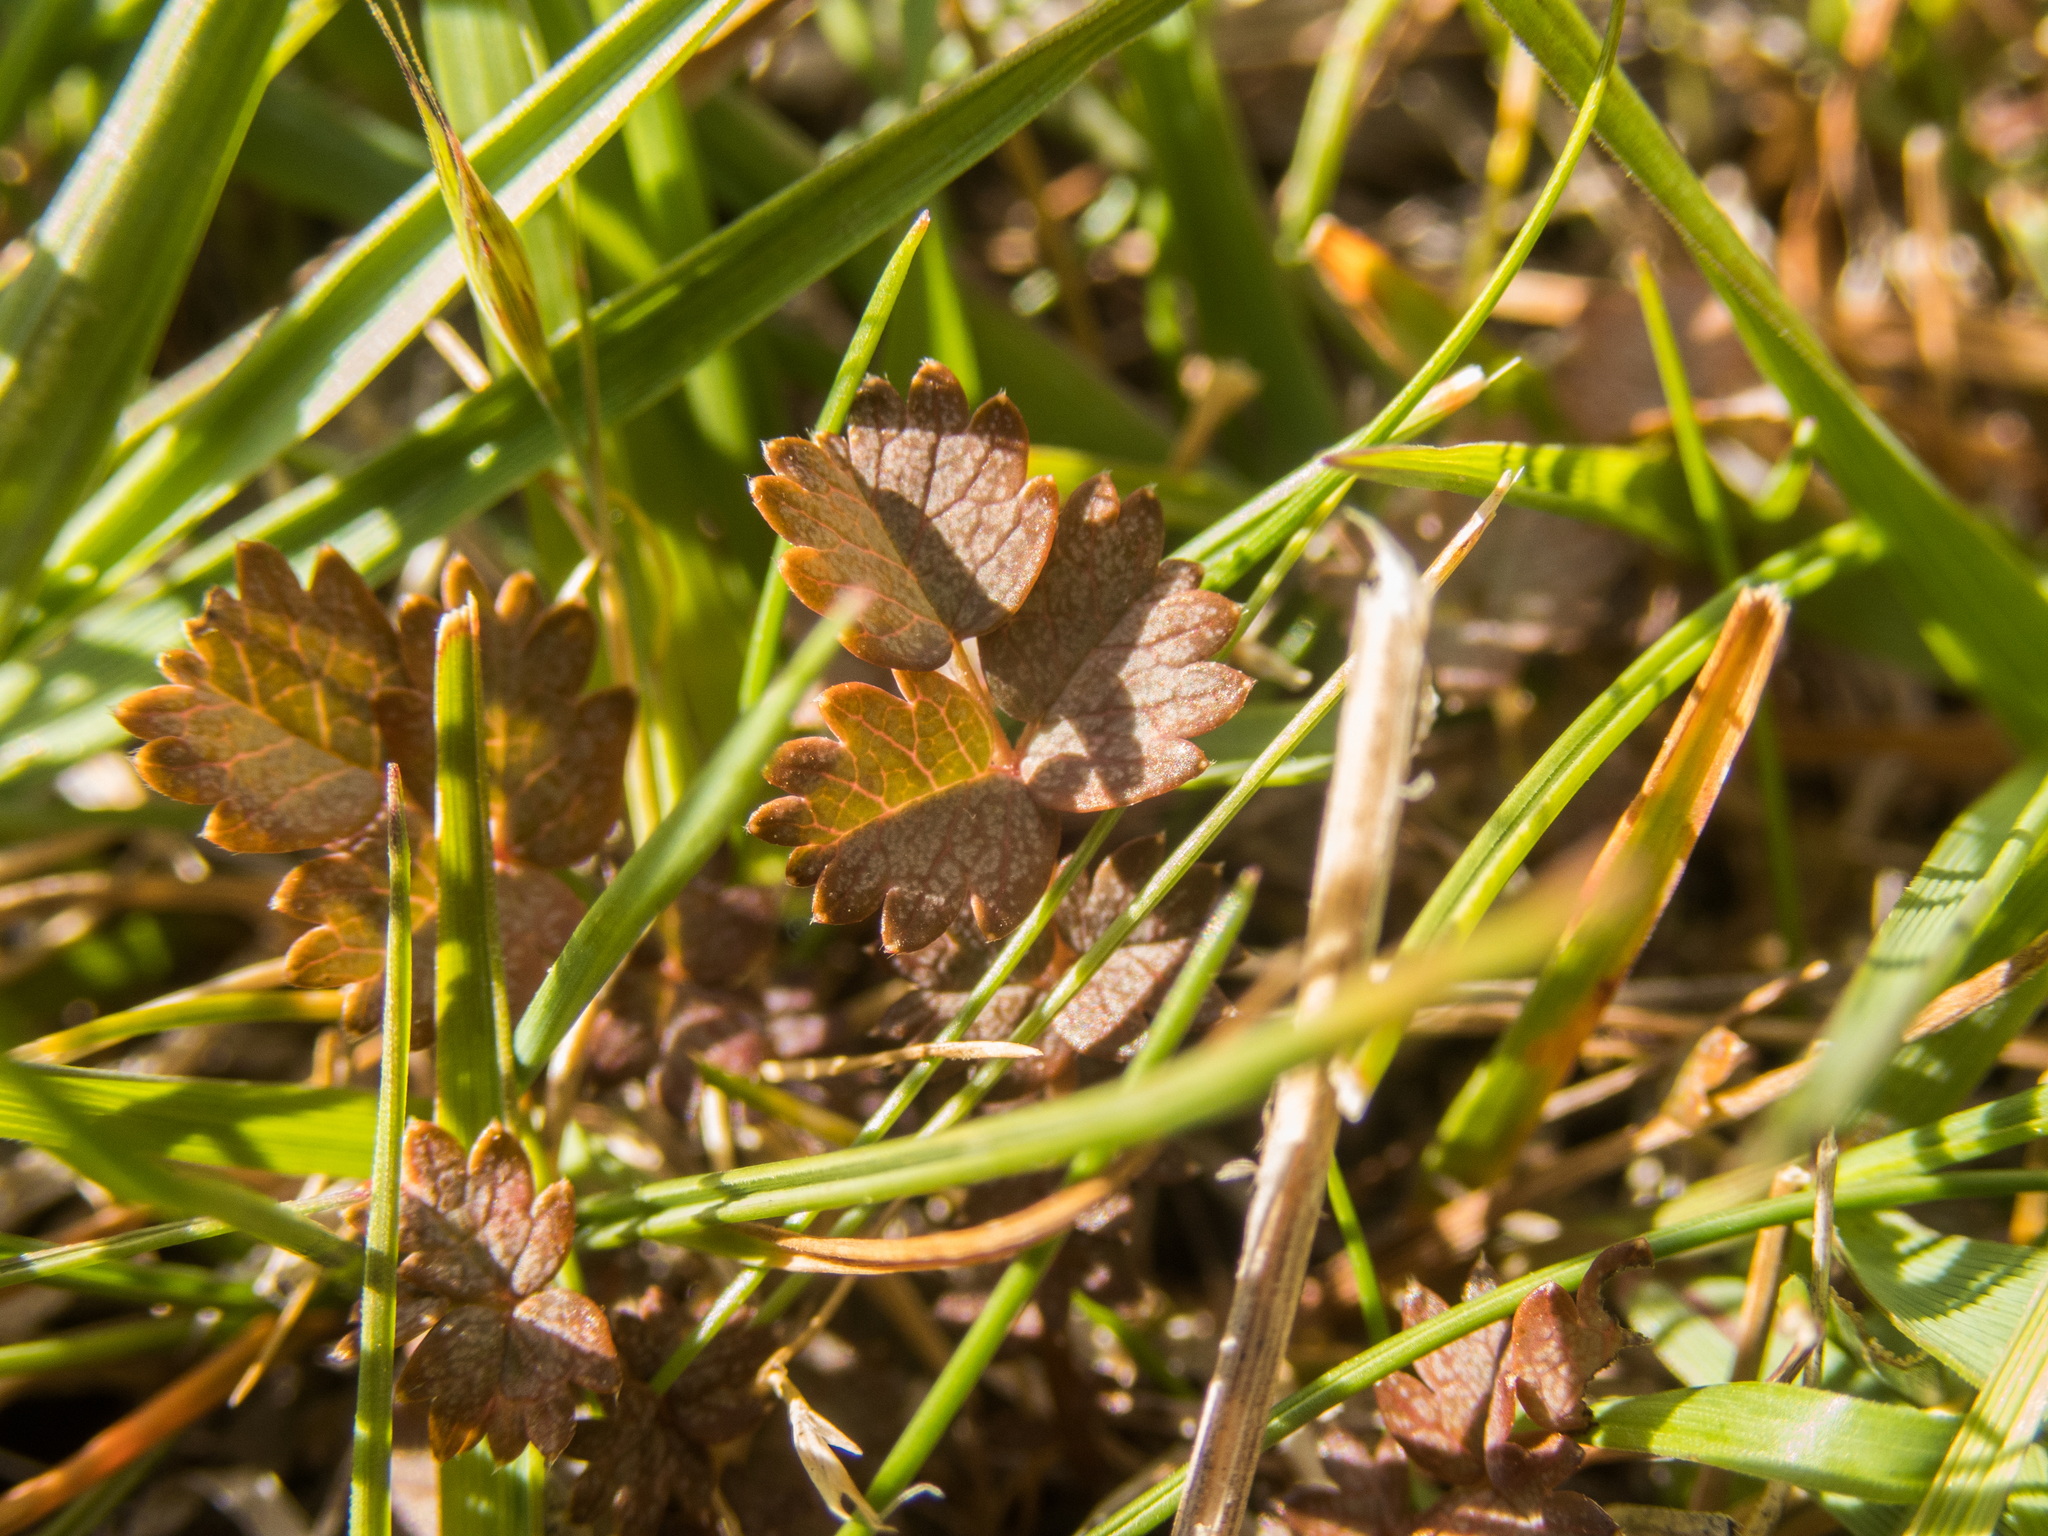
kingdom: Plantae
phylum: Tracheophyta
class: Magnoliopsida
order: Rosales
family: Rosaceae
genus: Acaena
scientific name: Acaena inermis
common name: Spineless acaena
